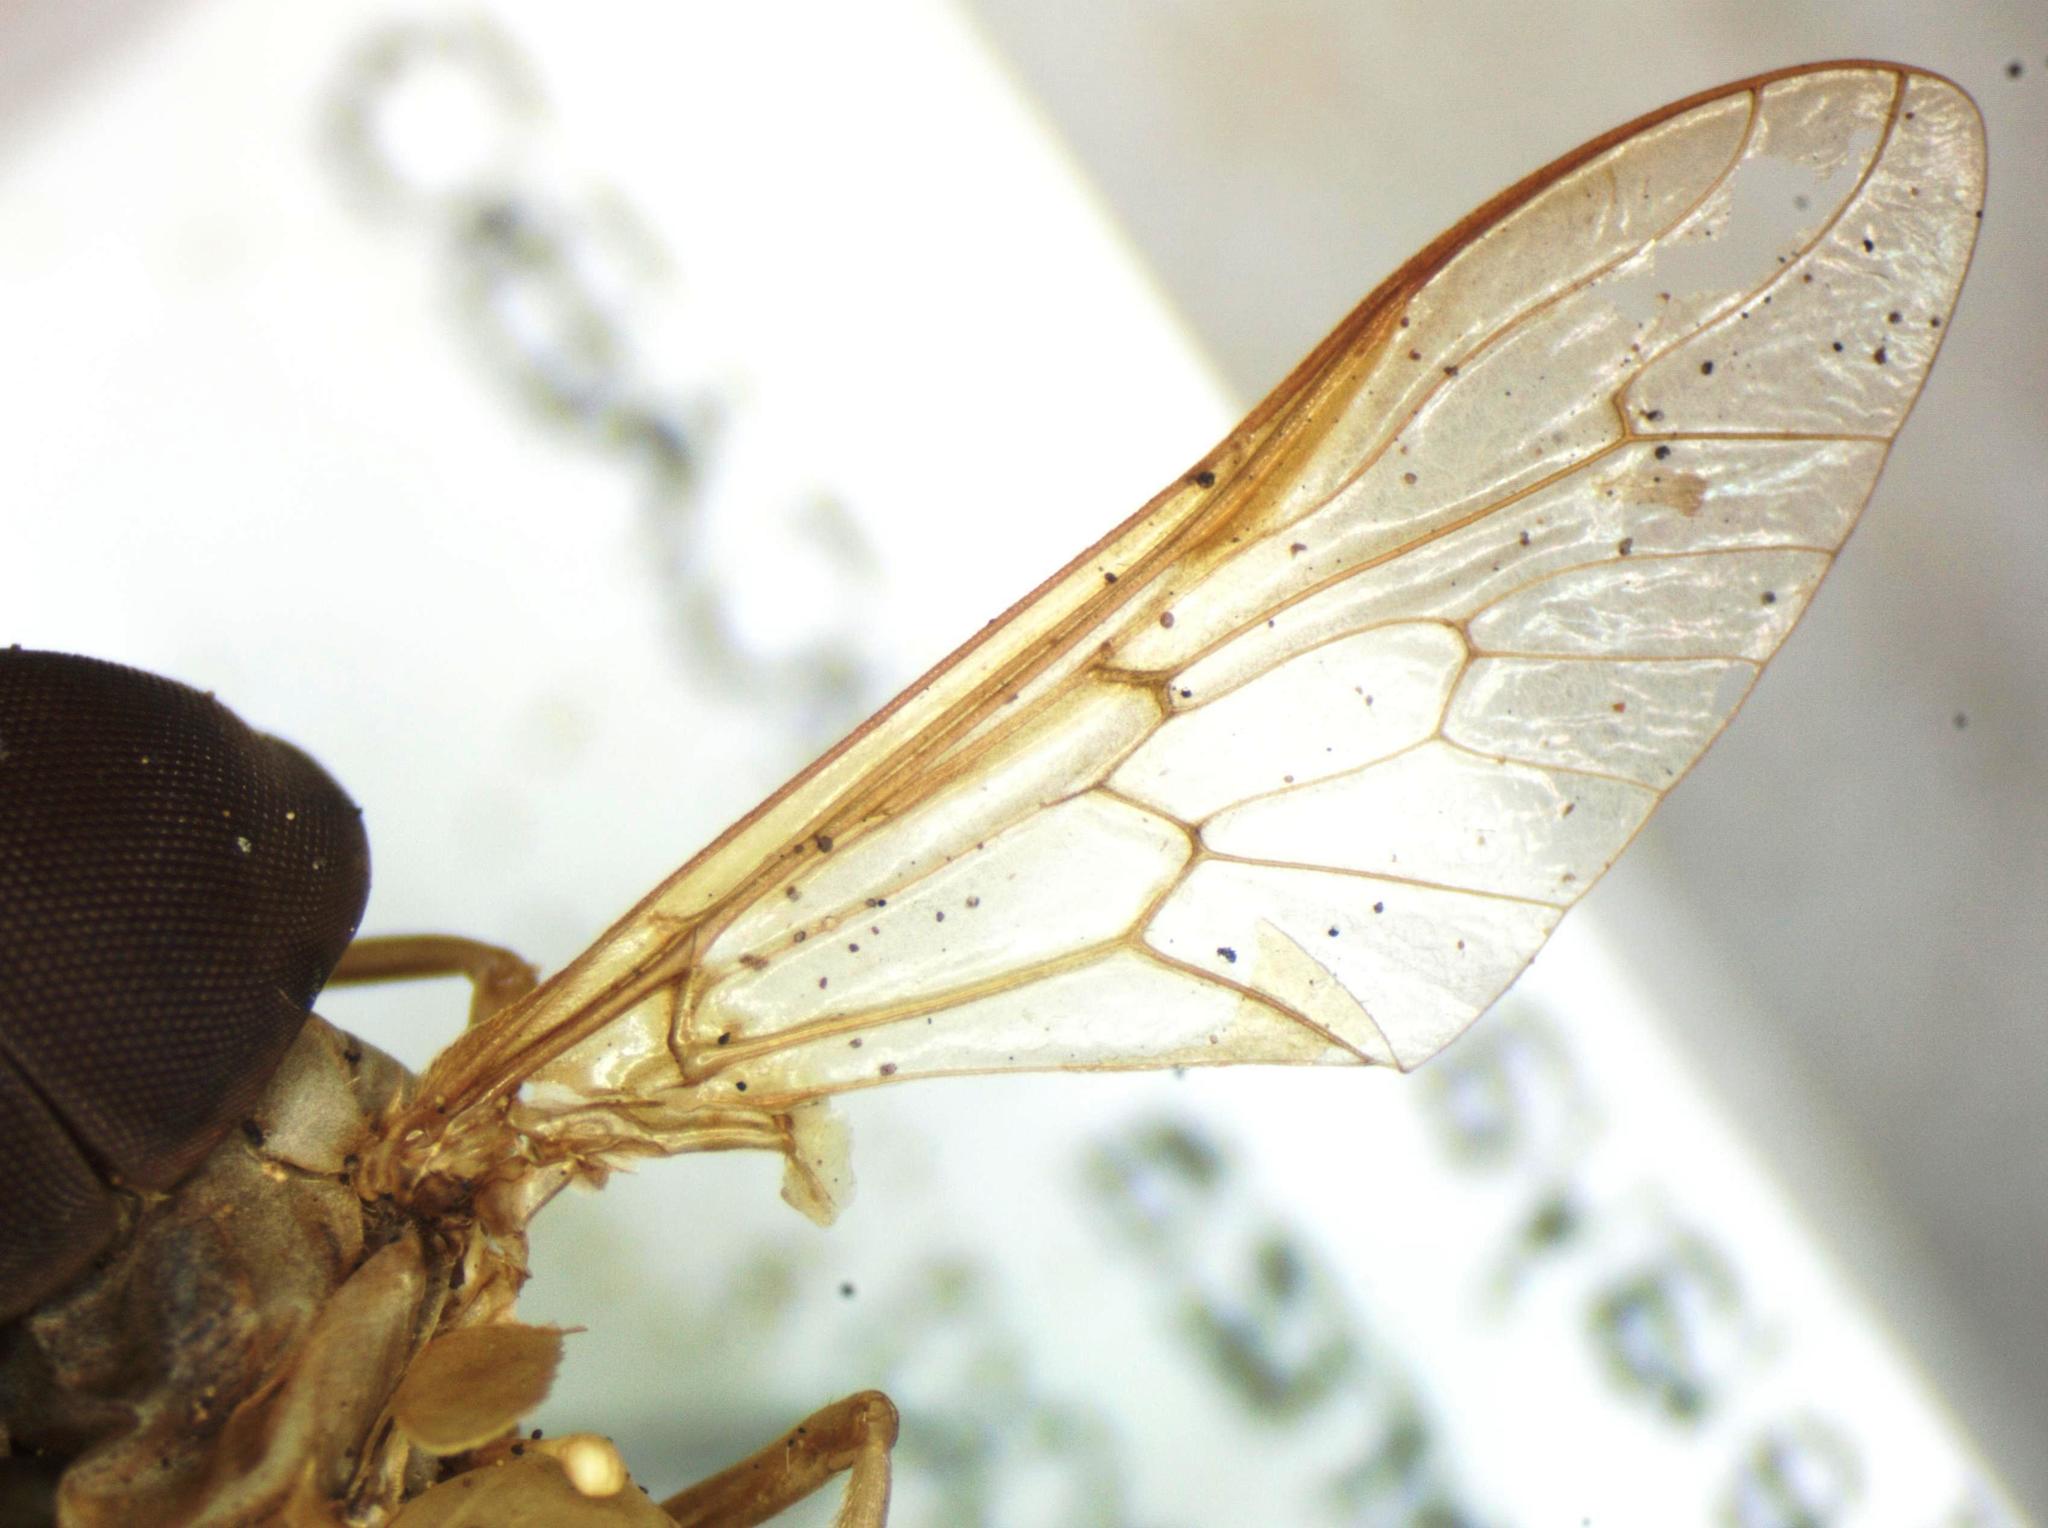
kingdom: Animalia
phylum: Arthropoda
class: Insecta
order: Diptera
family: Tabanidae
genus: Chlorotabanus
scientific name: Chlorotabanus inanis
